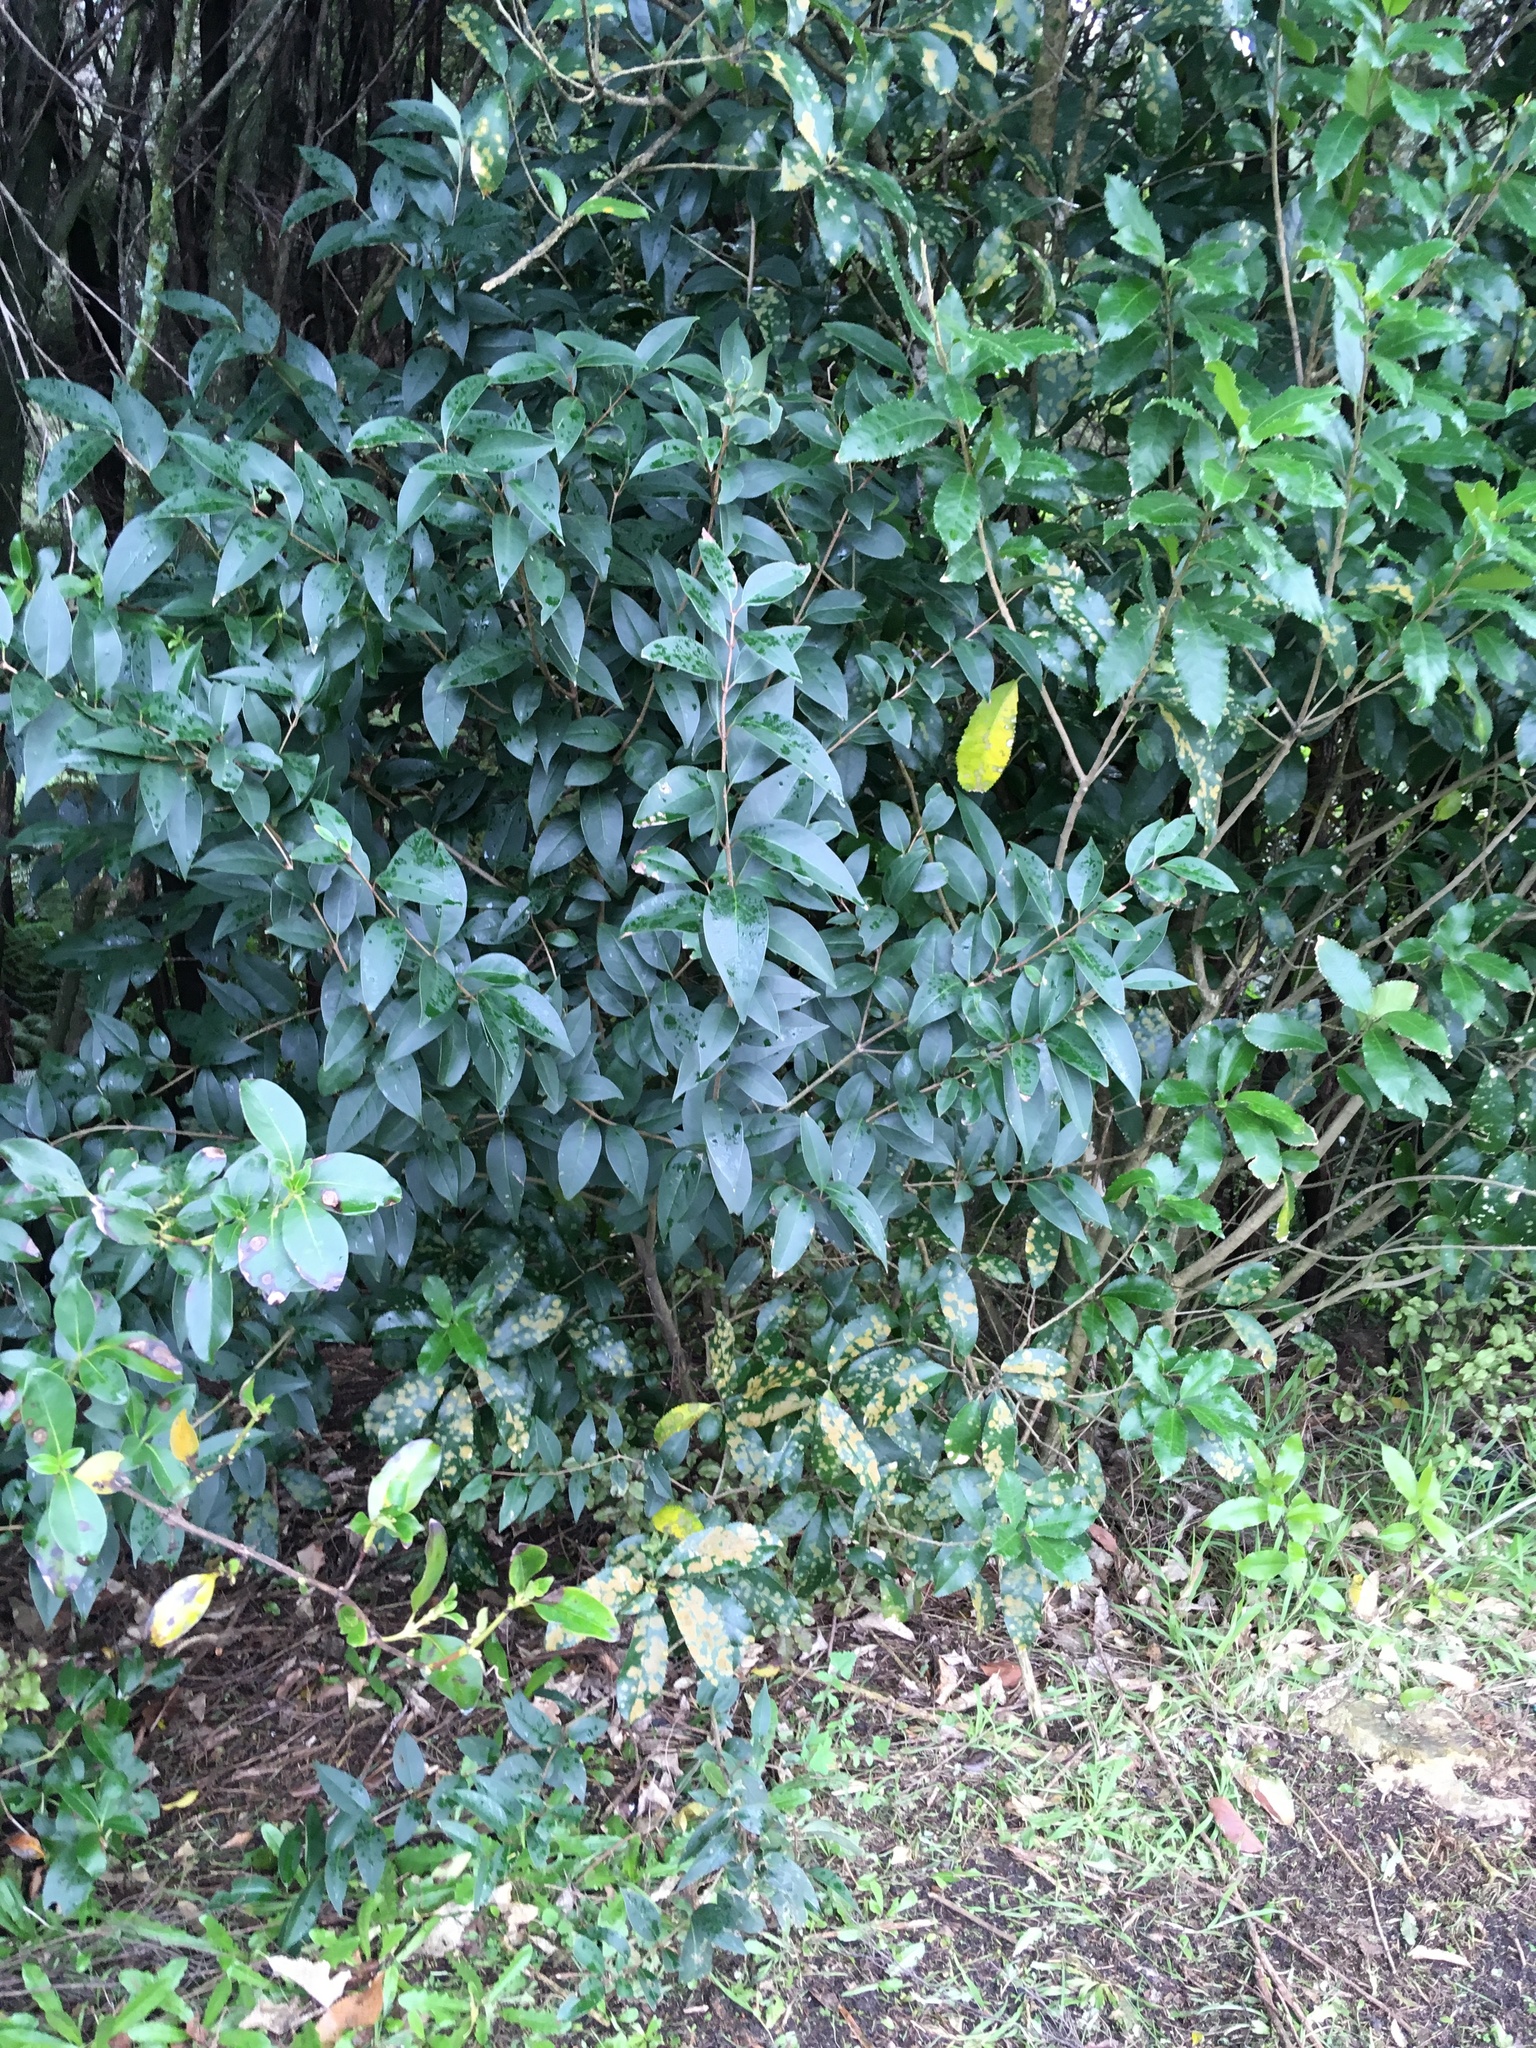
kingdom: Plantae
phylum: Tracheophyta
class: Magnoliopsida
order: Lamiales
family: Oleaceae
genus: Ligustrum
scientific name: Ligustrum lucidum
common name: Glossy privet
